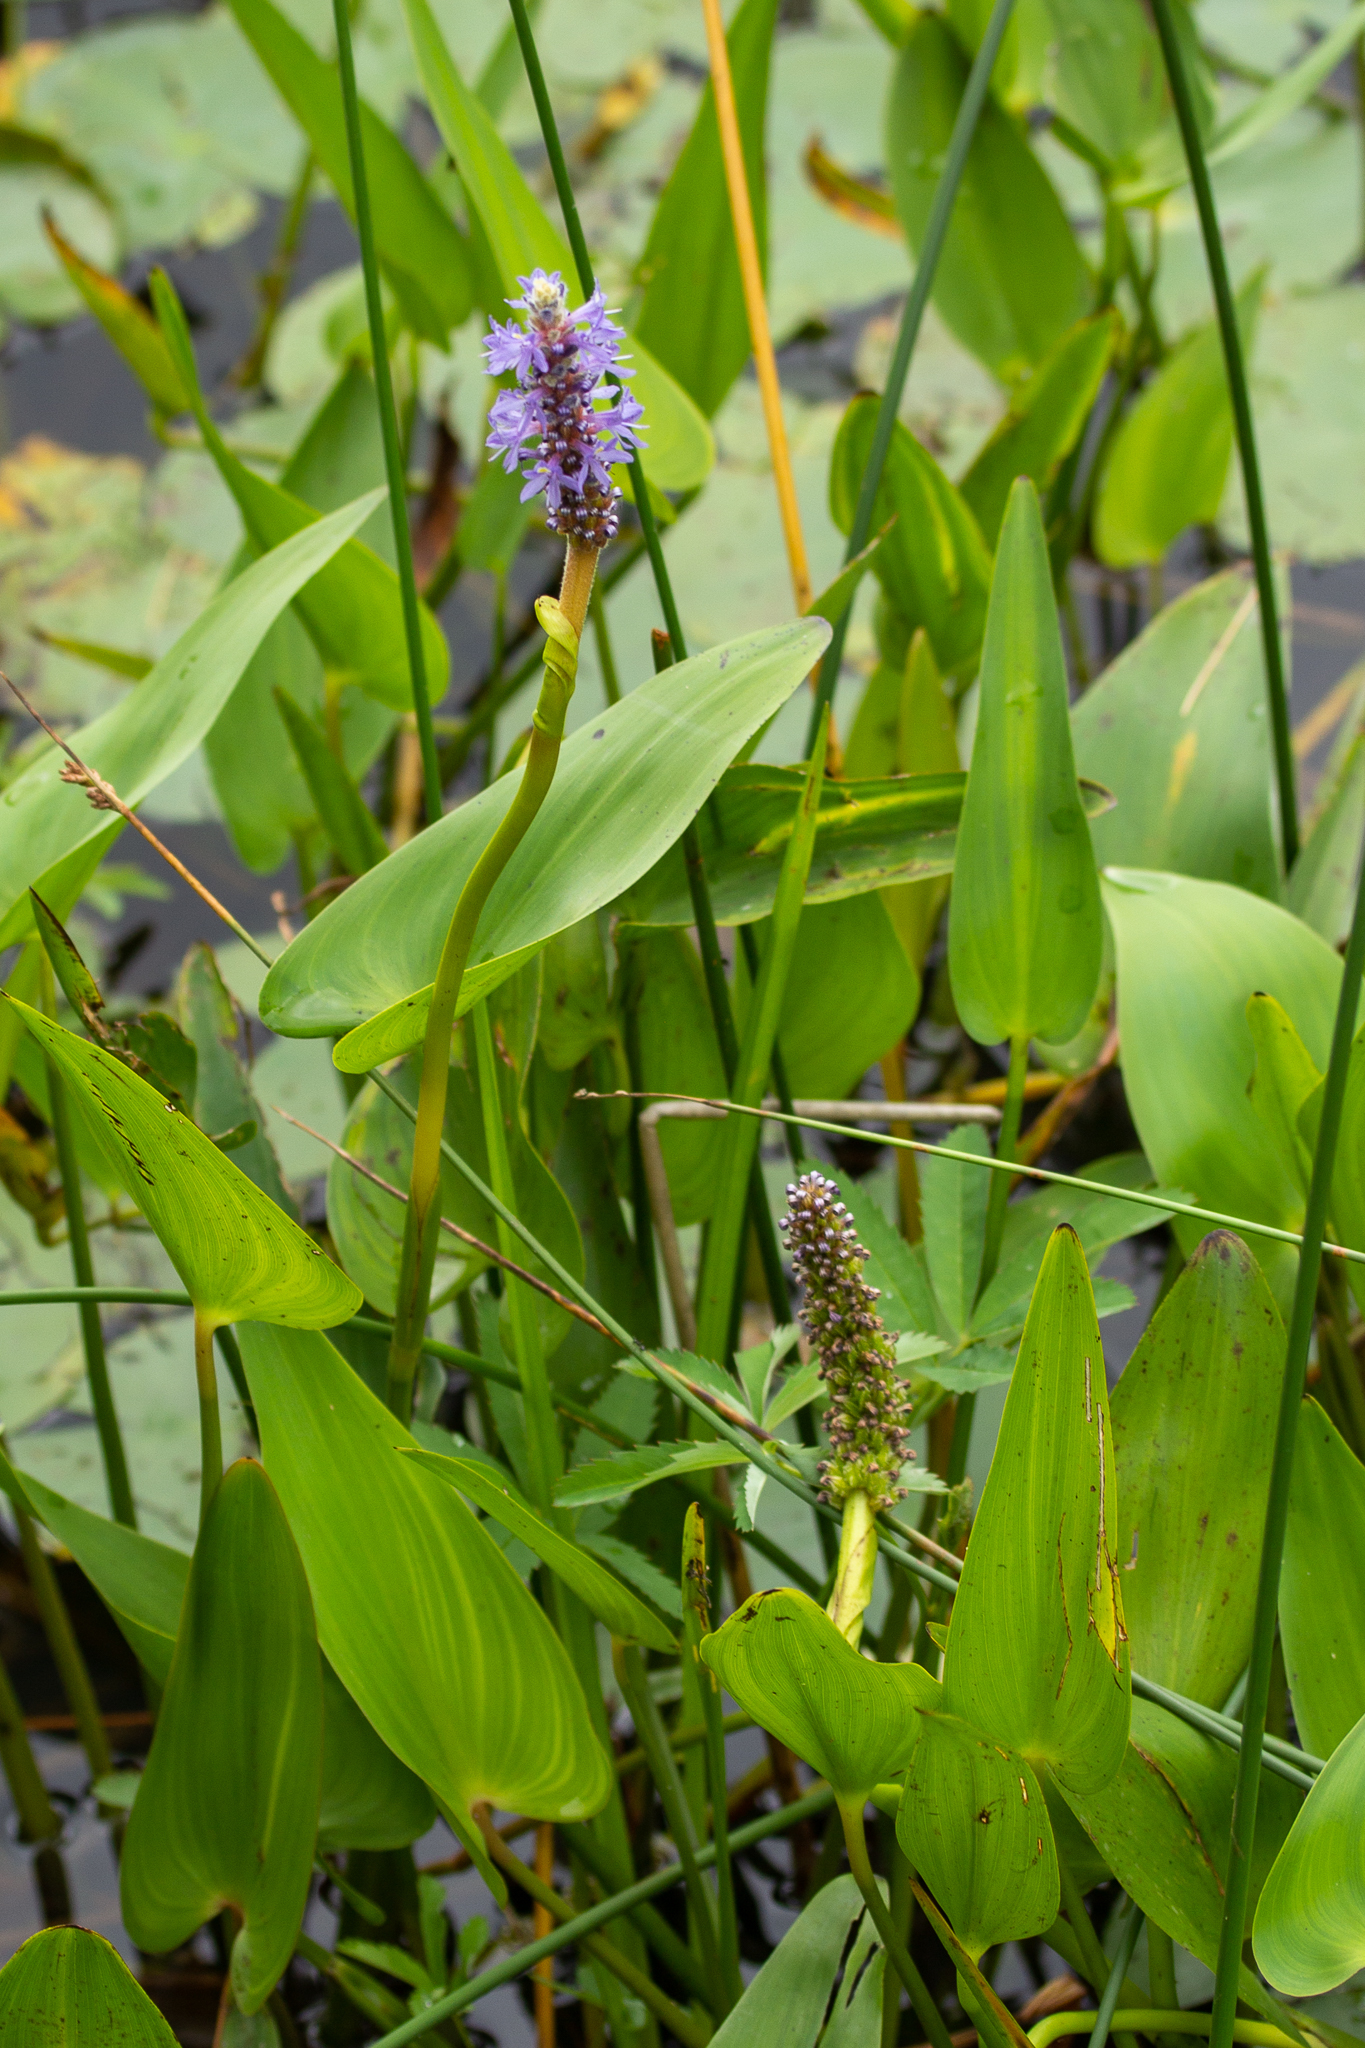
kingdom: Plantae
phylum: Tracheophyta
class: Liliopsida
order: Commelinales
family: Pontederiaceae
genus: Pontederia
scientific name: Pontederia cordata
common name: Pickerelweed
